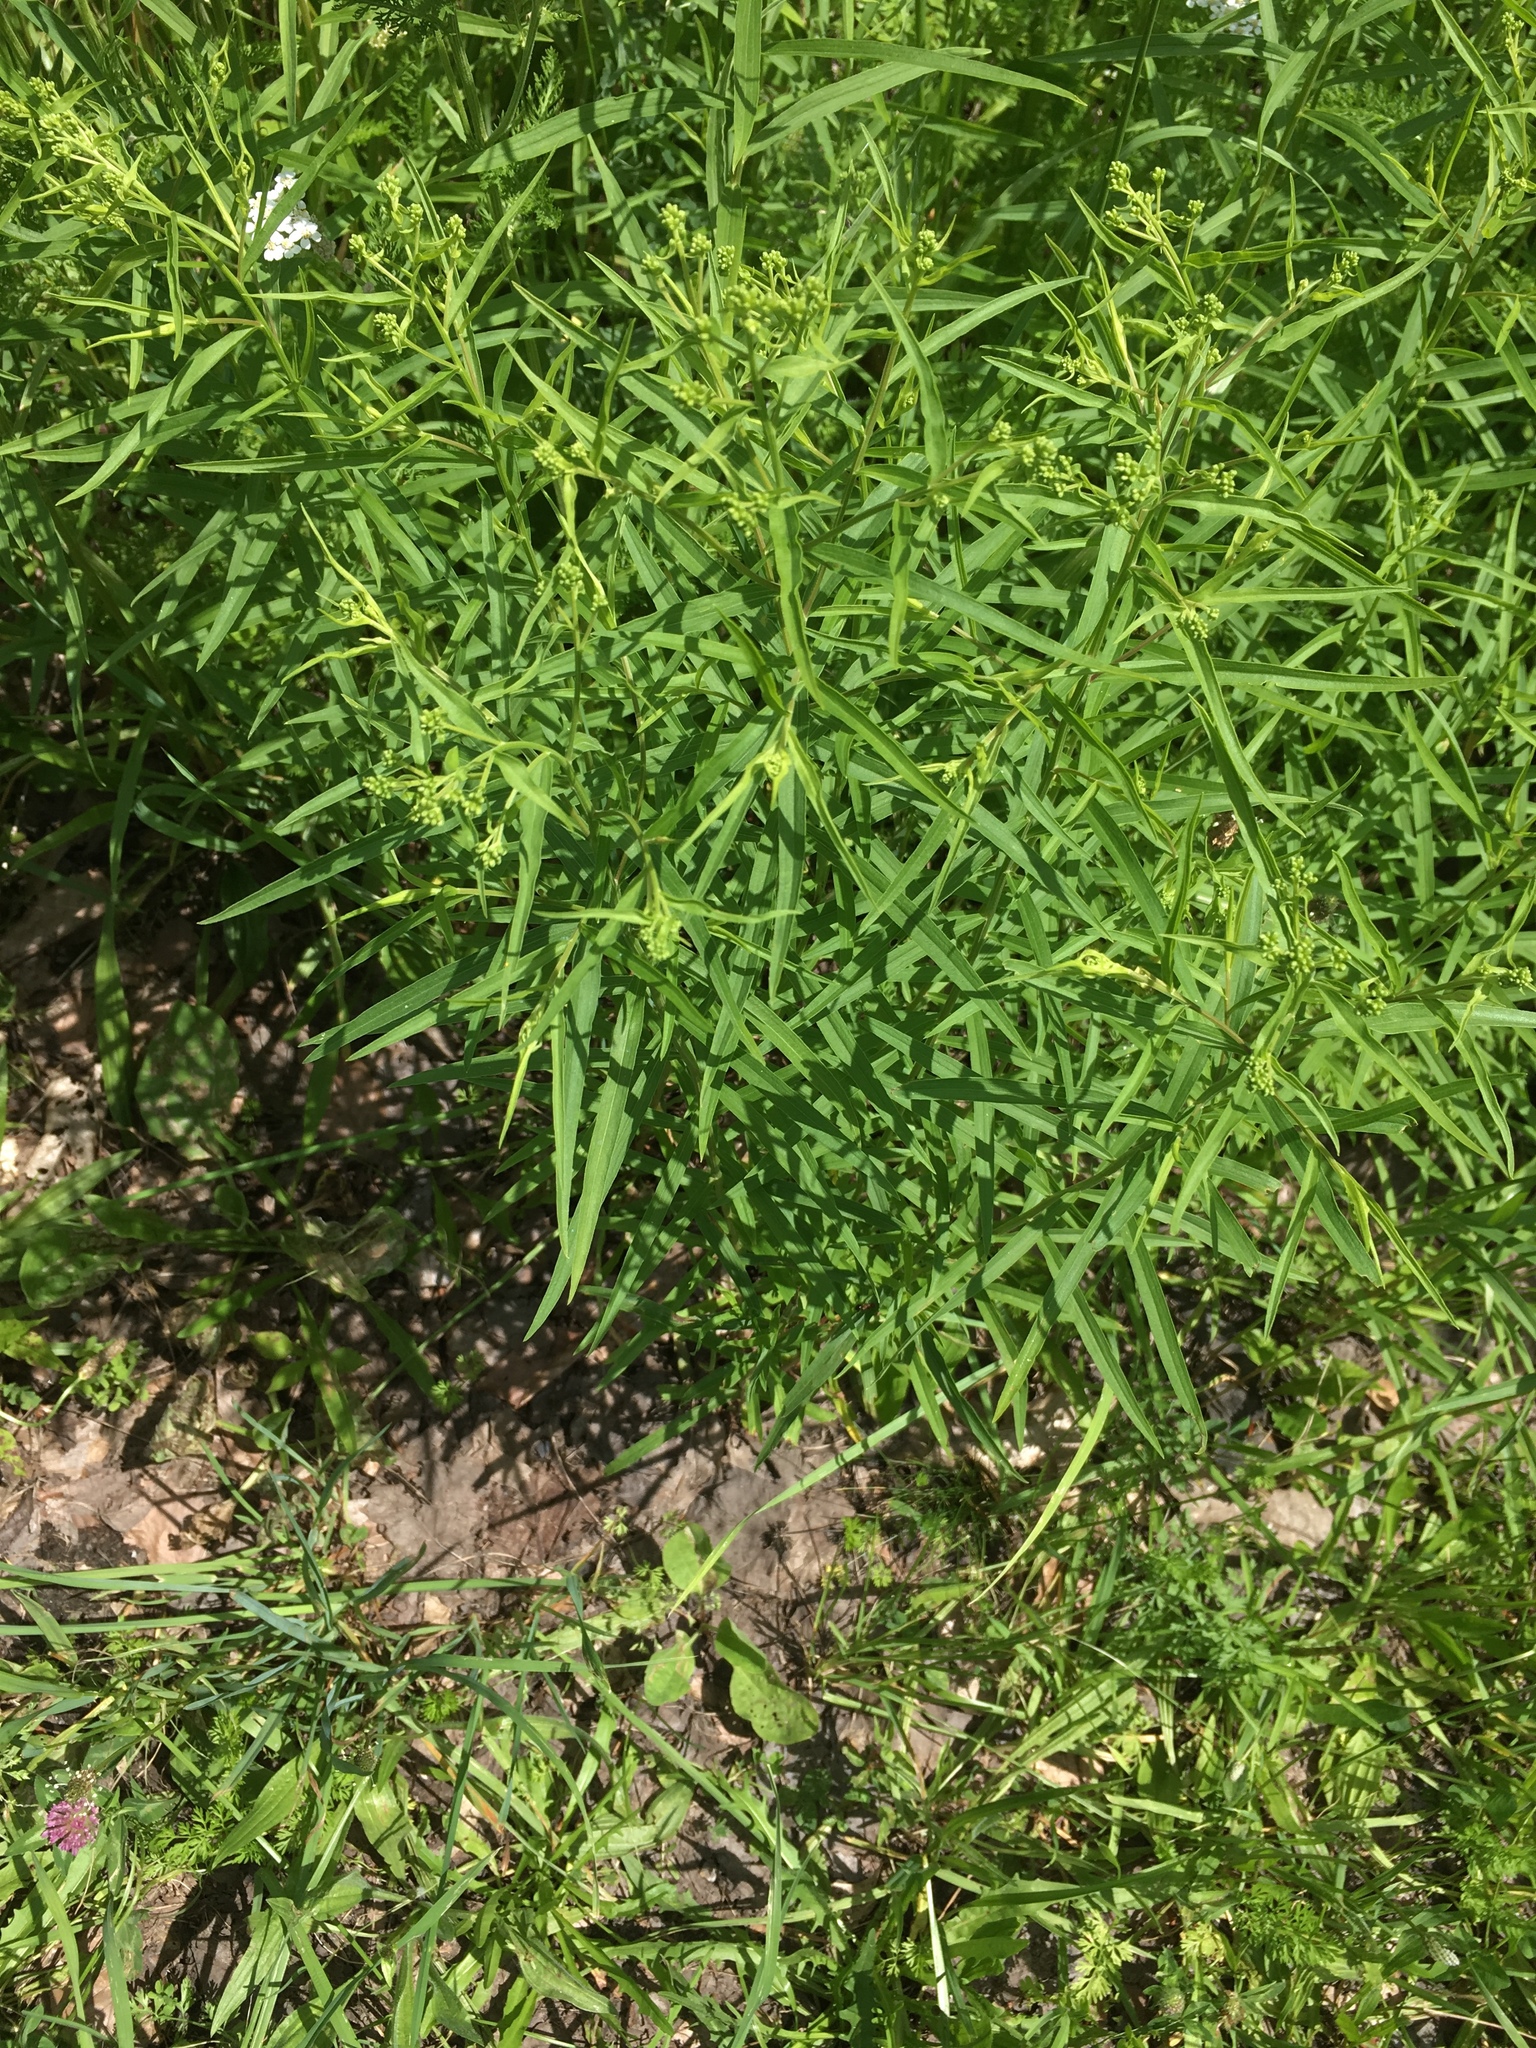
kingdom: Plantae
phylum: Tracheophyta
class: Magnoliopsida
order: Asterales
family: Asteraceae
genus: Euthamia
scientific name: Euthamia graminifolia
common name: Common goldentop
